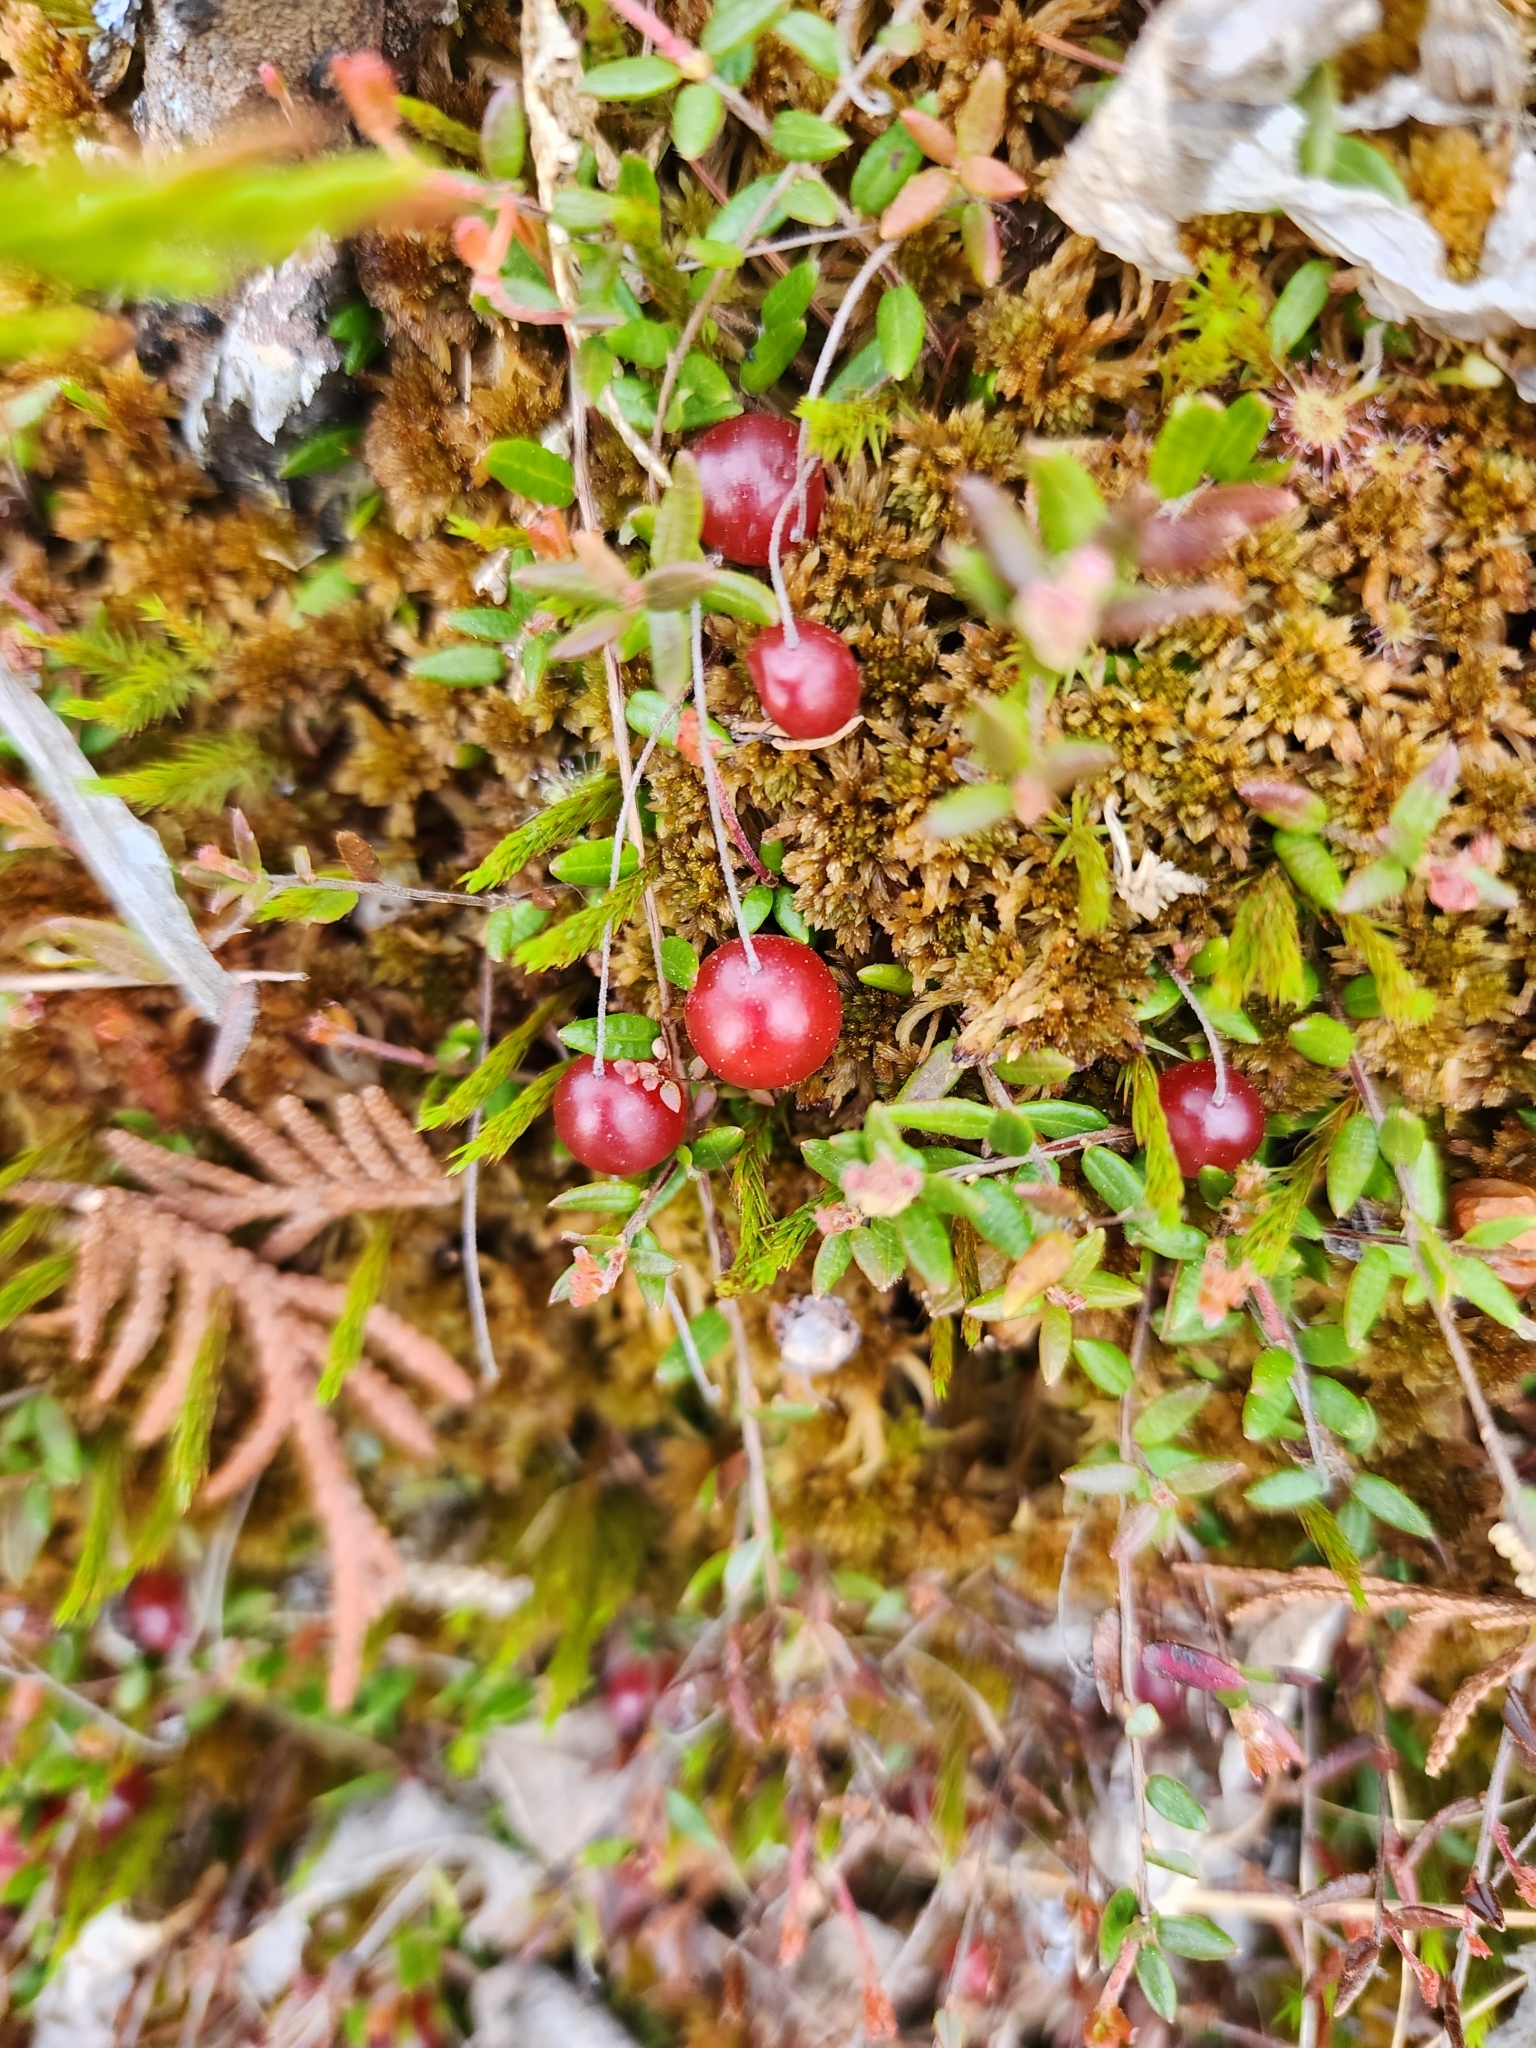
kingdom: Plantae
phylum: Tracheophyta
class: Magnoliopsida
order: Ericales
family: Ericaceae
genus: Vaccinium
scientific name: Vaccinium oxycoccos
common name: Cranberry
